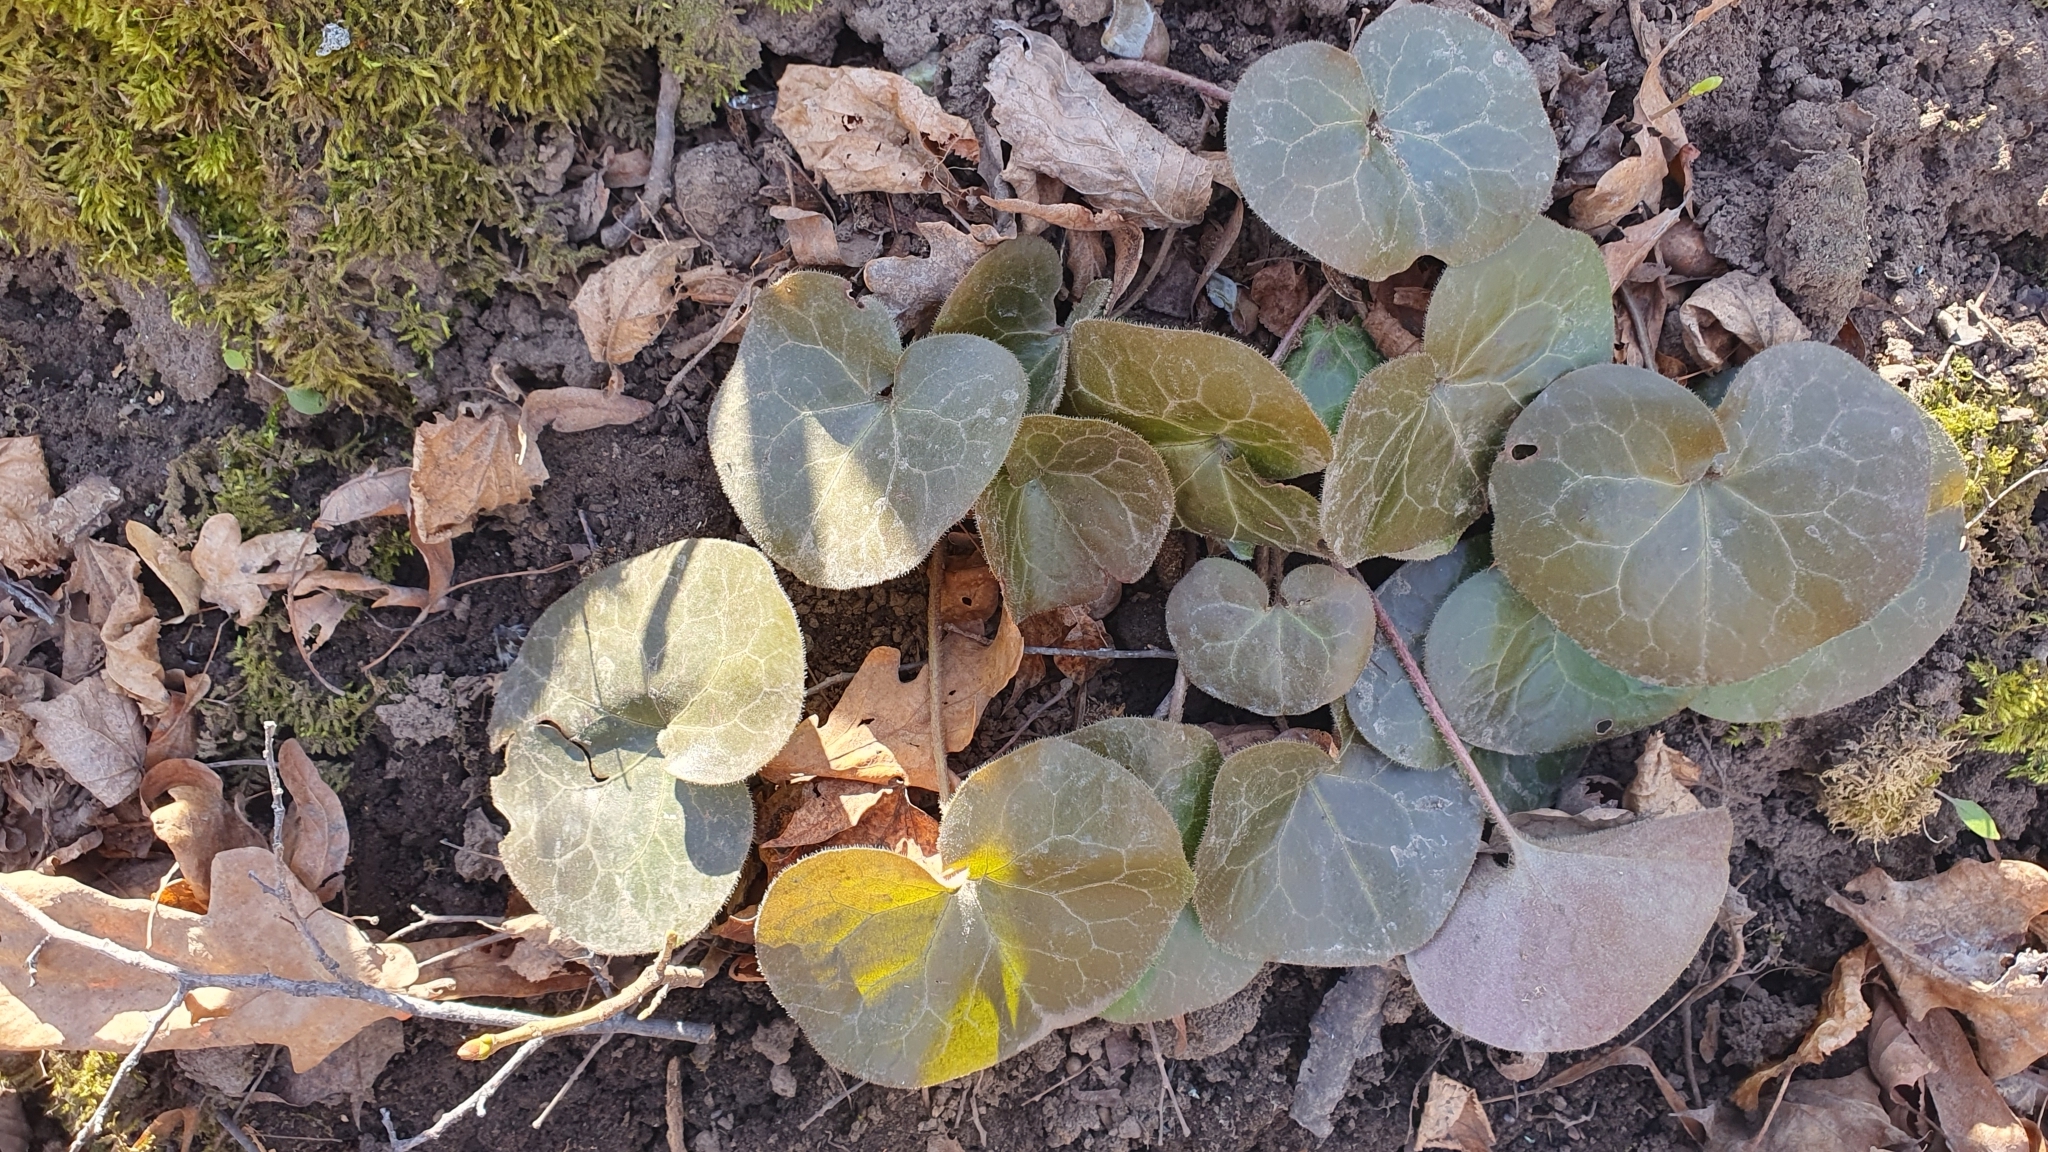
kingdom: Plantae
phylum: Tracheophyta
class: Magnoliopsida
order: Piperales
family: Aristolochiaceae
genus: Asarum
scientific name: Asarum europaeum
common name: Asarabacca
